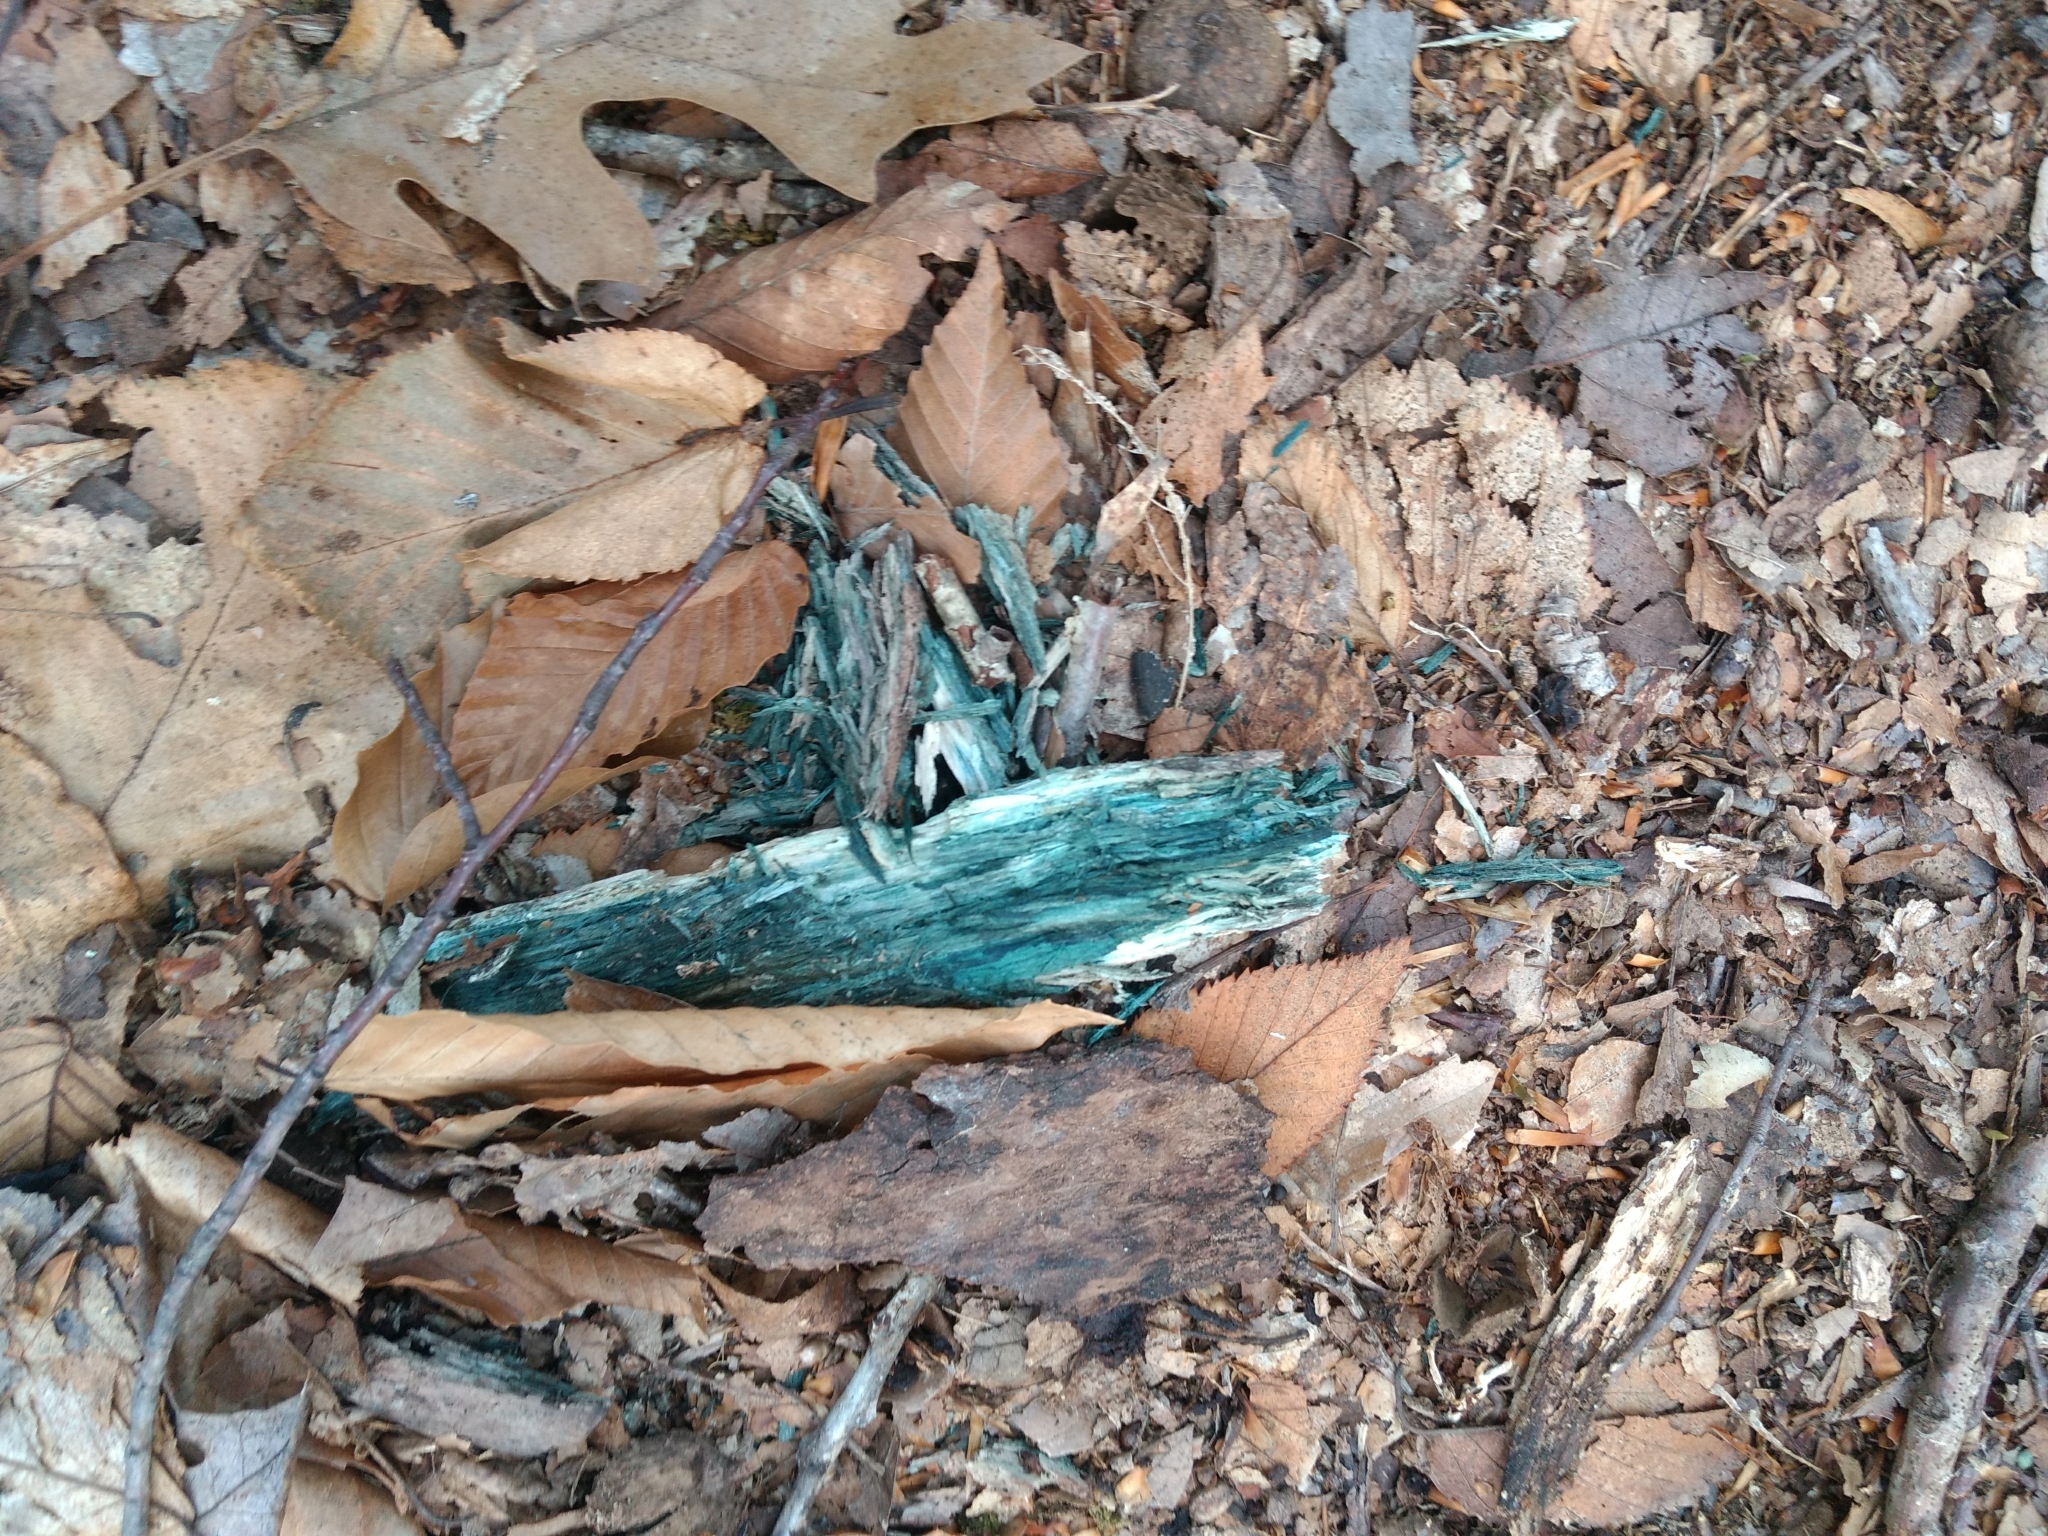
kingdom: Fungi
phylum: Ascomycota
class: Leotiomycetes
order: Helotiales
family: Chlorociboriaceae
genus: Chlorociboria
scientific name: Chlorociboria
